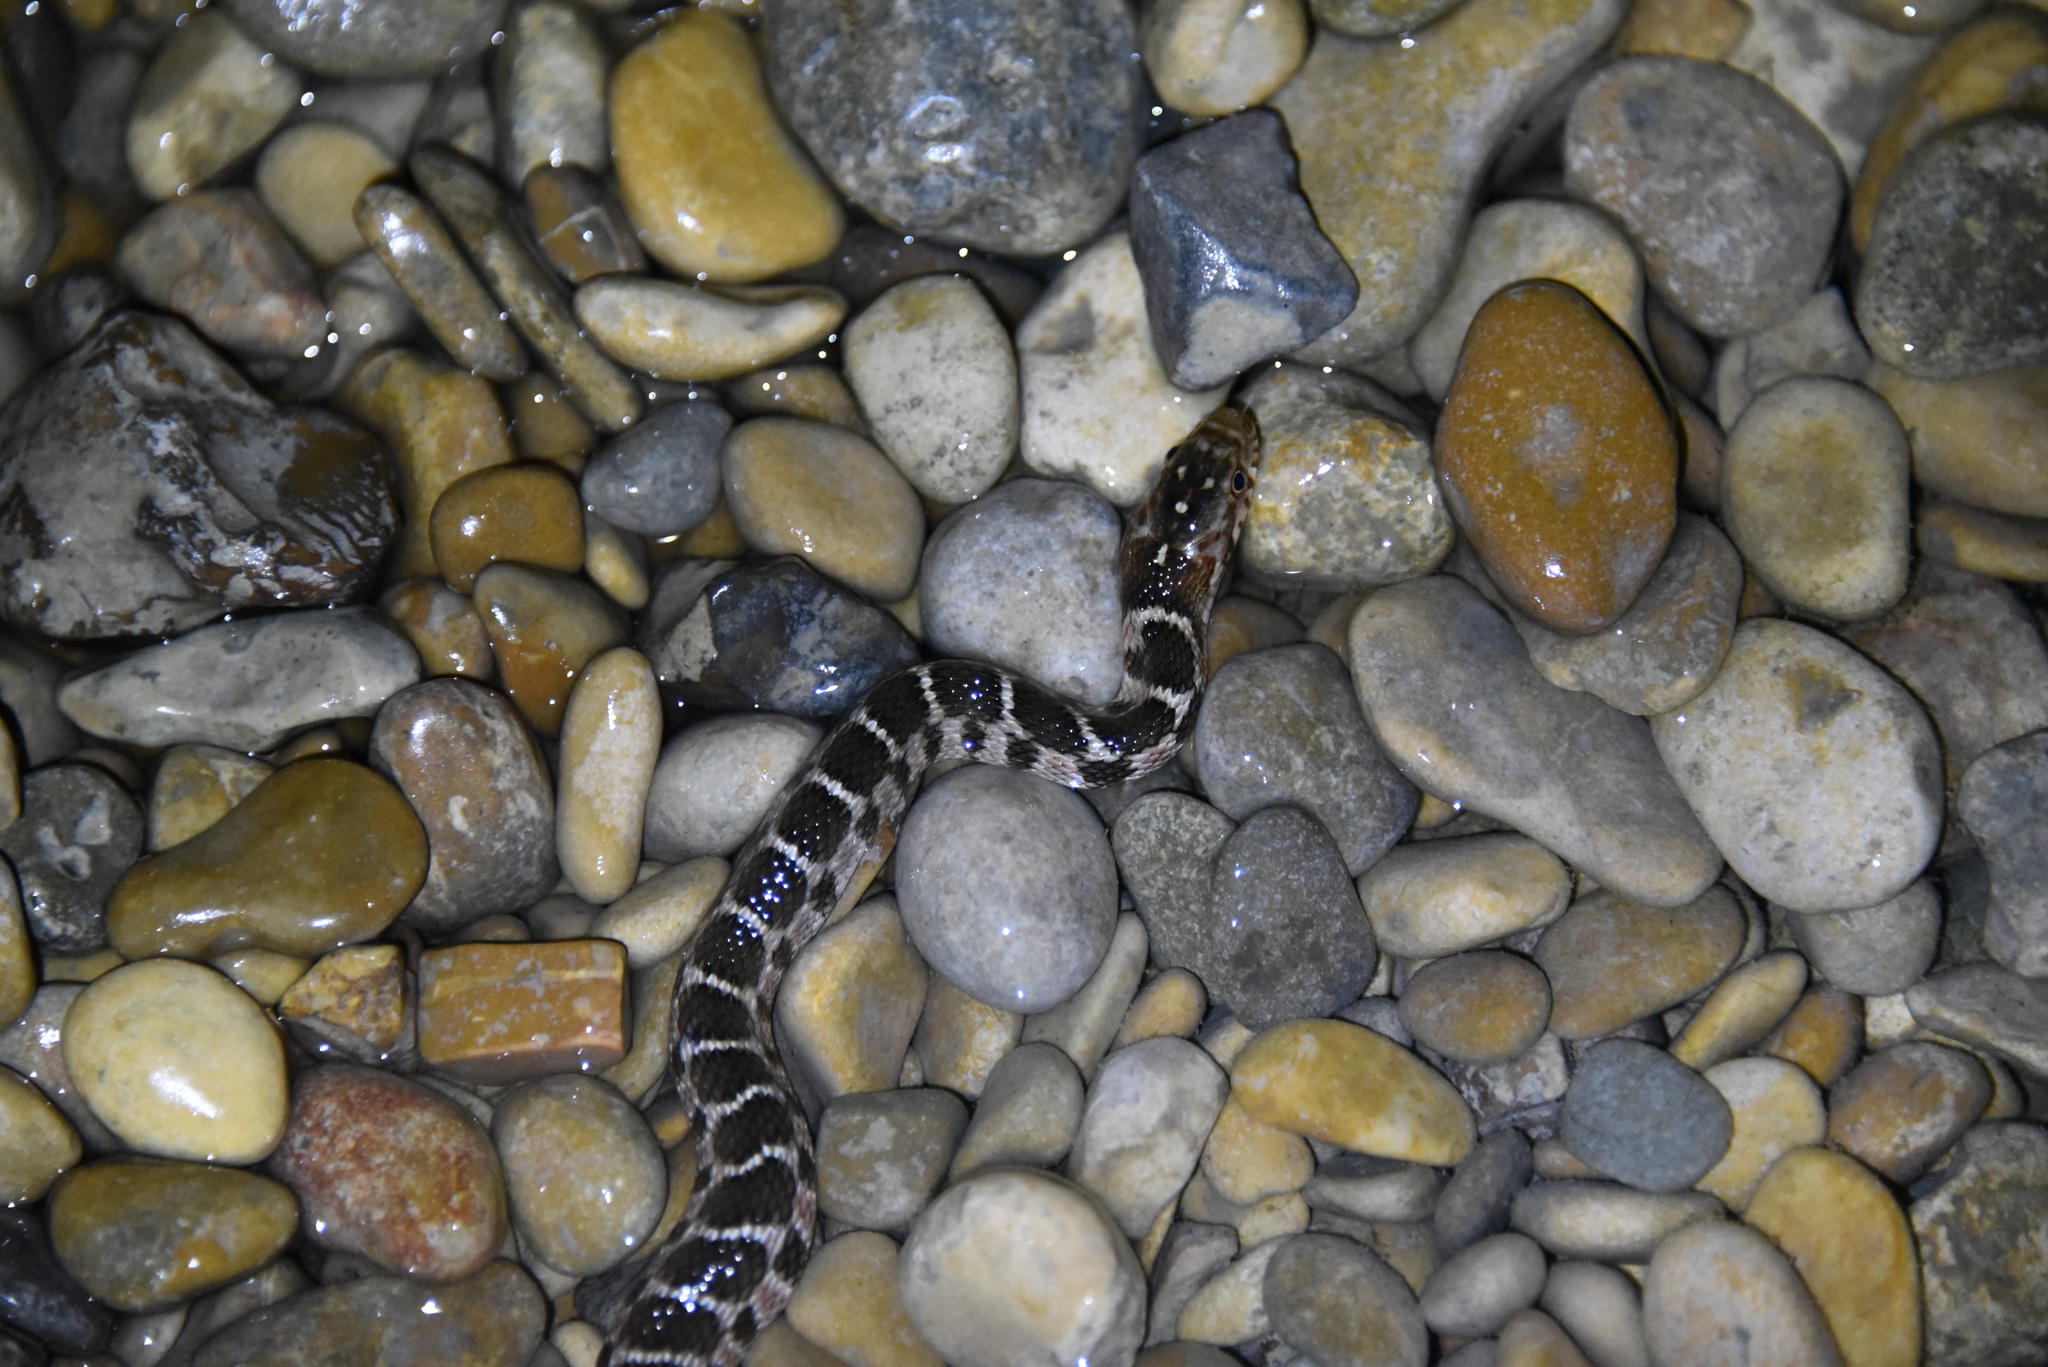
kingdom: Animalia
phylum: Chordata
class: Squamata
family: Colubridae
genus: Nerodia
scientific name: Nerodia erythrogaster
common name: Plainbelly water snake
